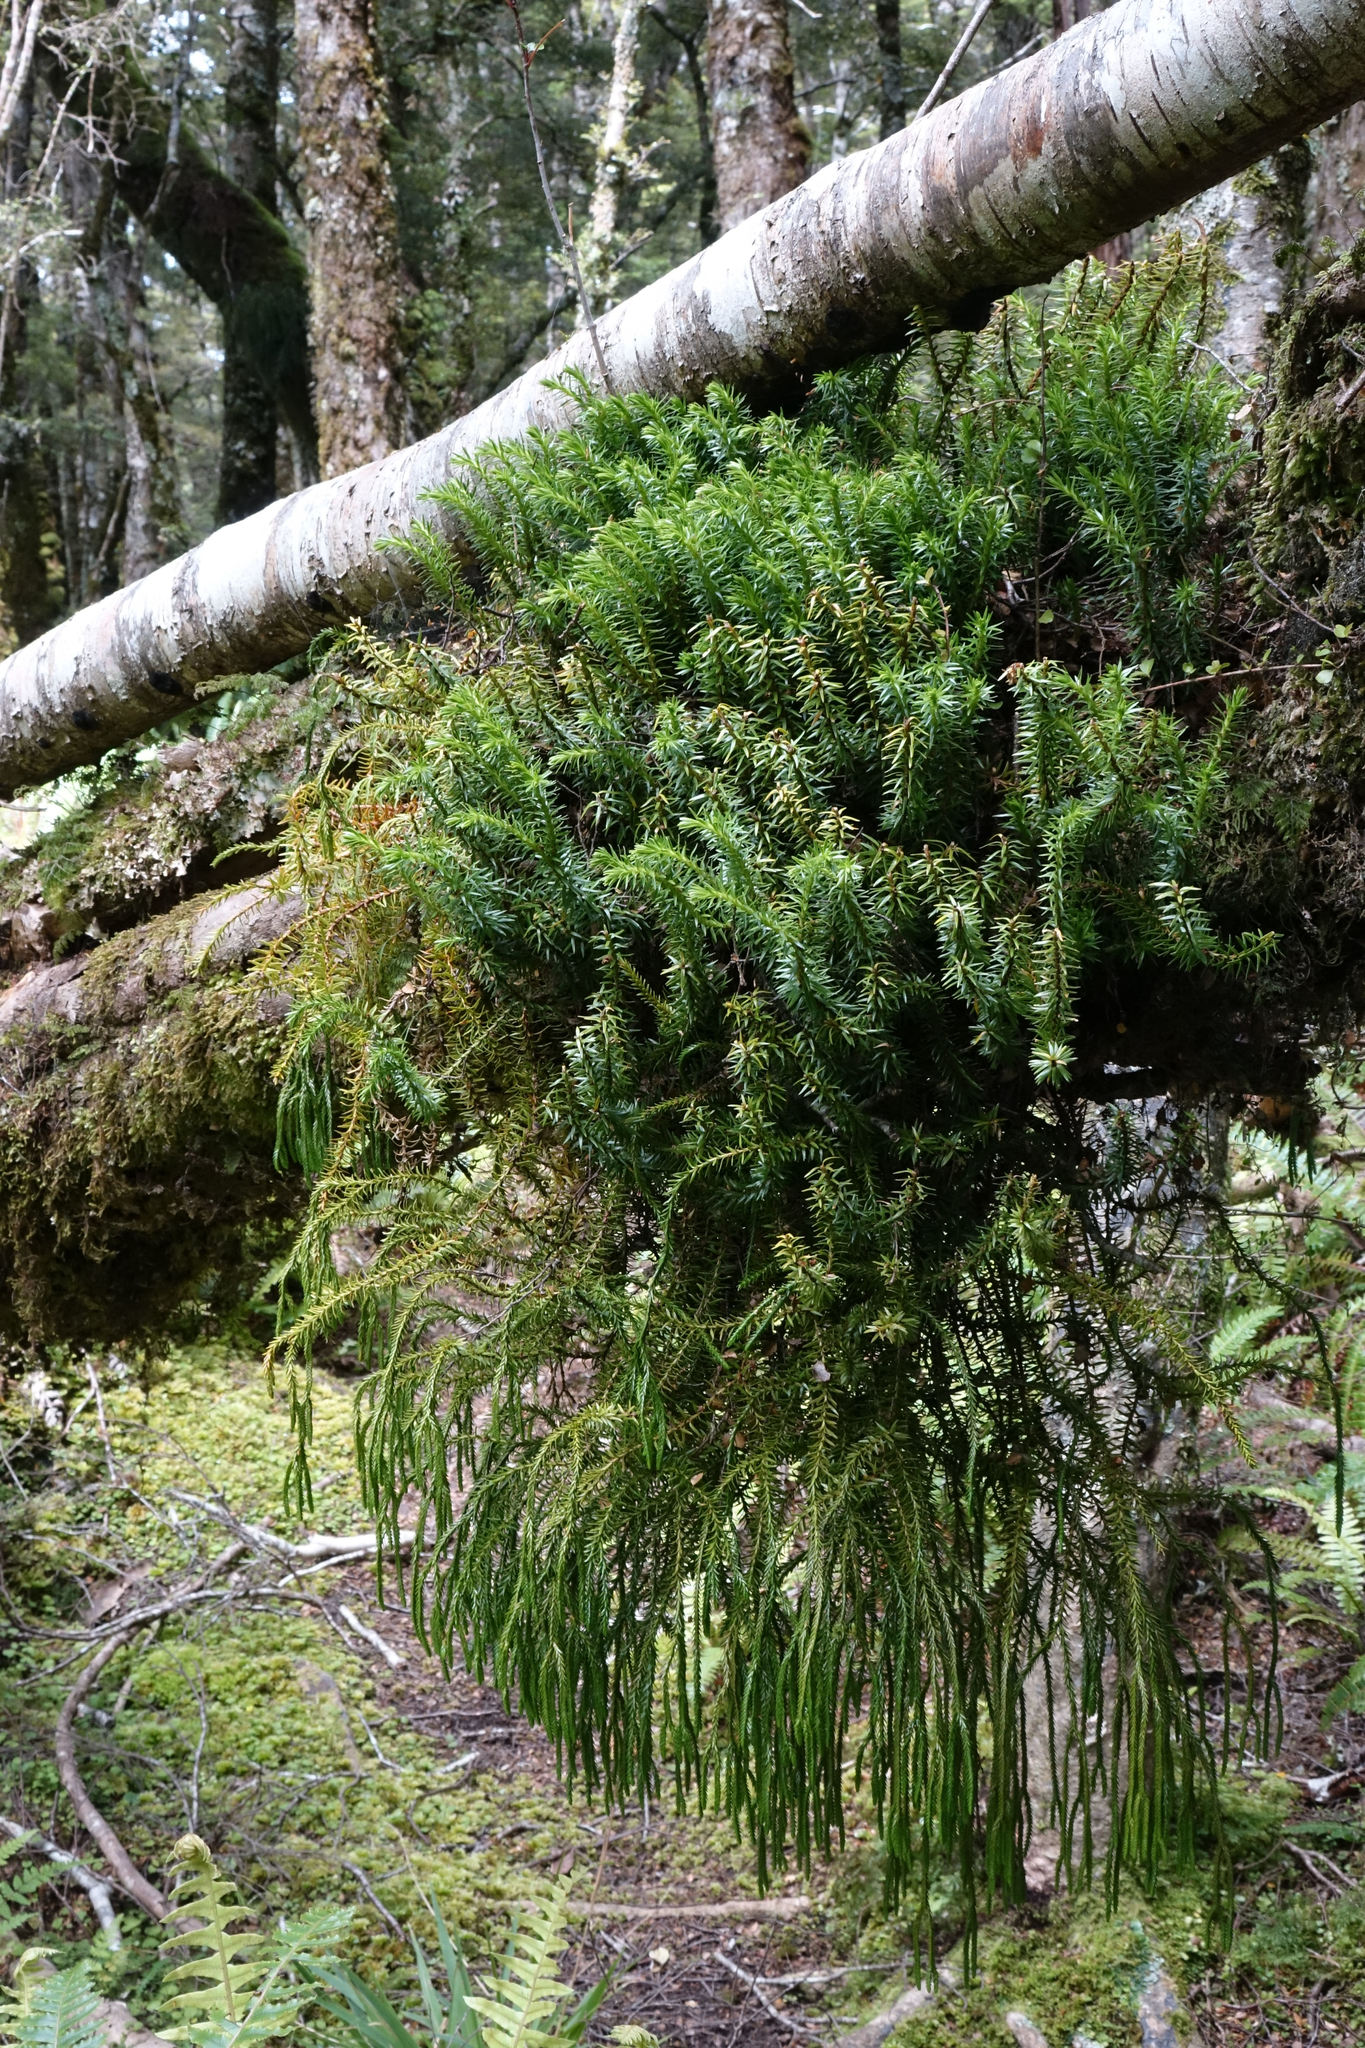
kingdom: Plantae
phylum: Tracheophyta
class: Lycopodiopsida
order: Lycopodiales
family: Lycopodiaceae
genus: Phlegmariurus
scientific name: Phlegmariurus varius
